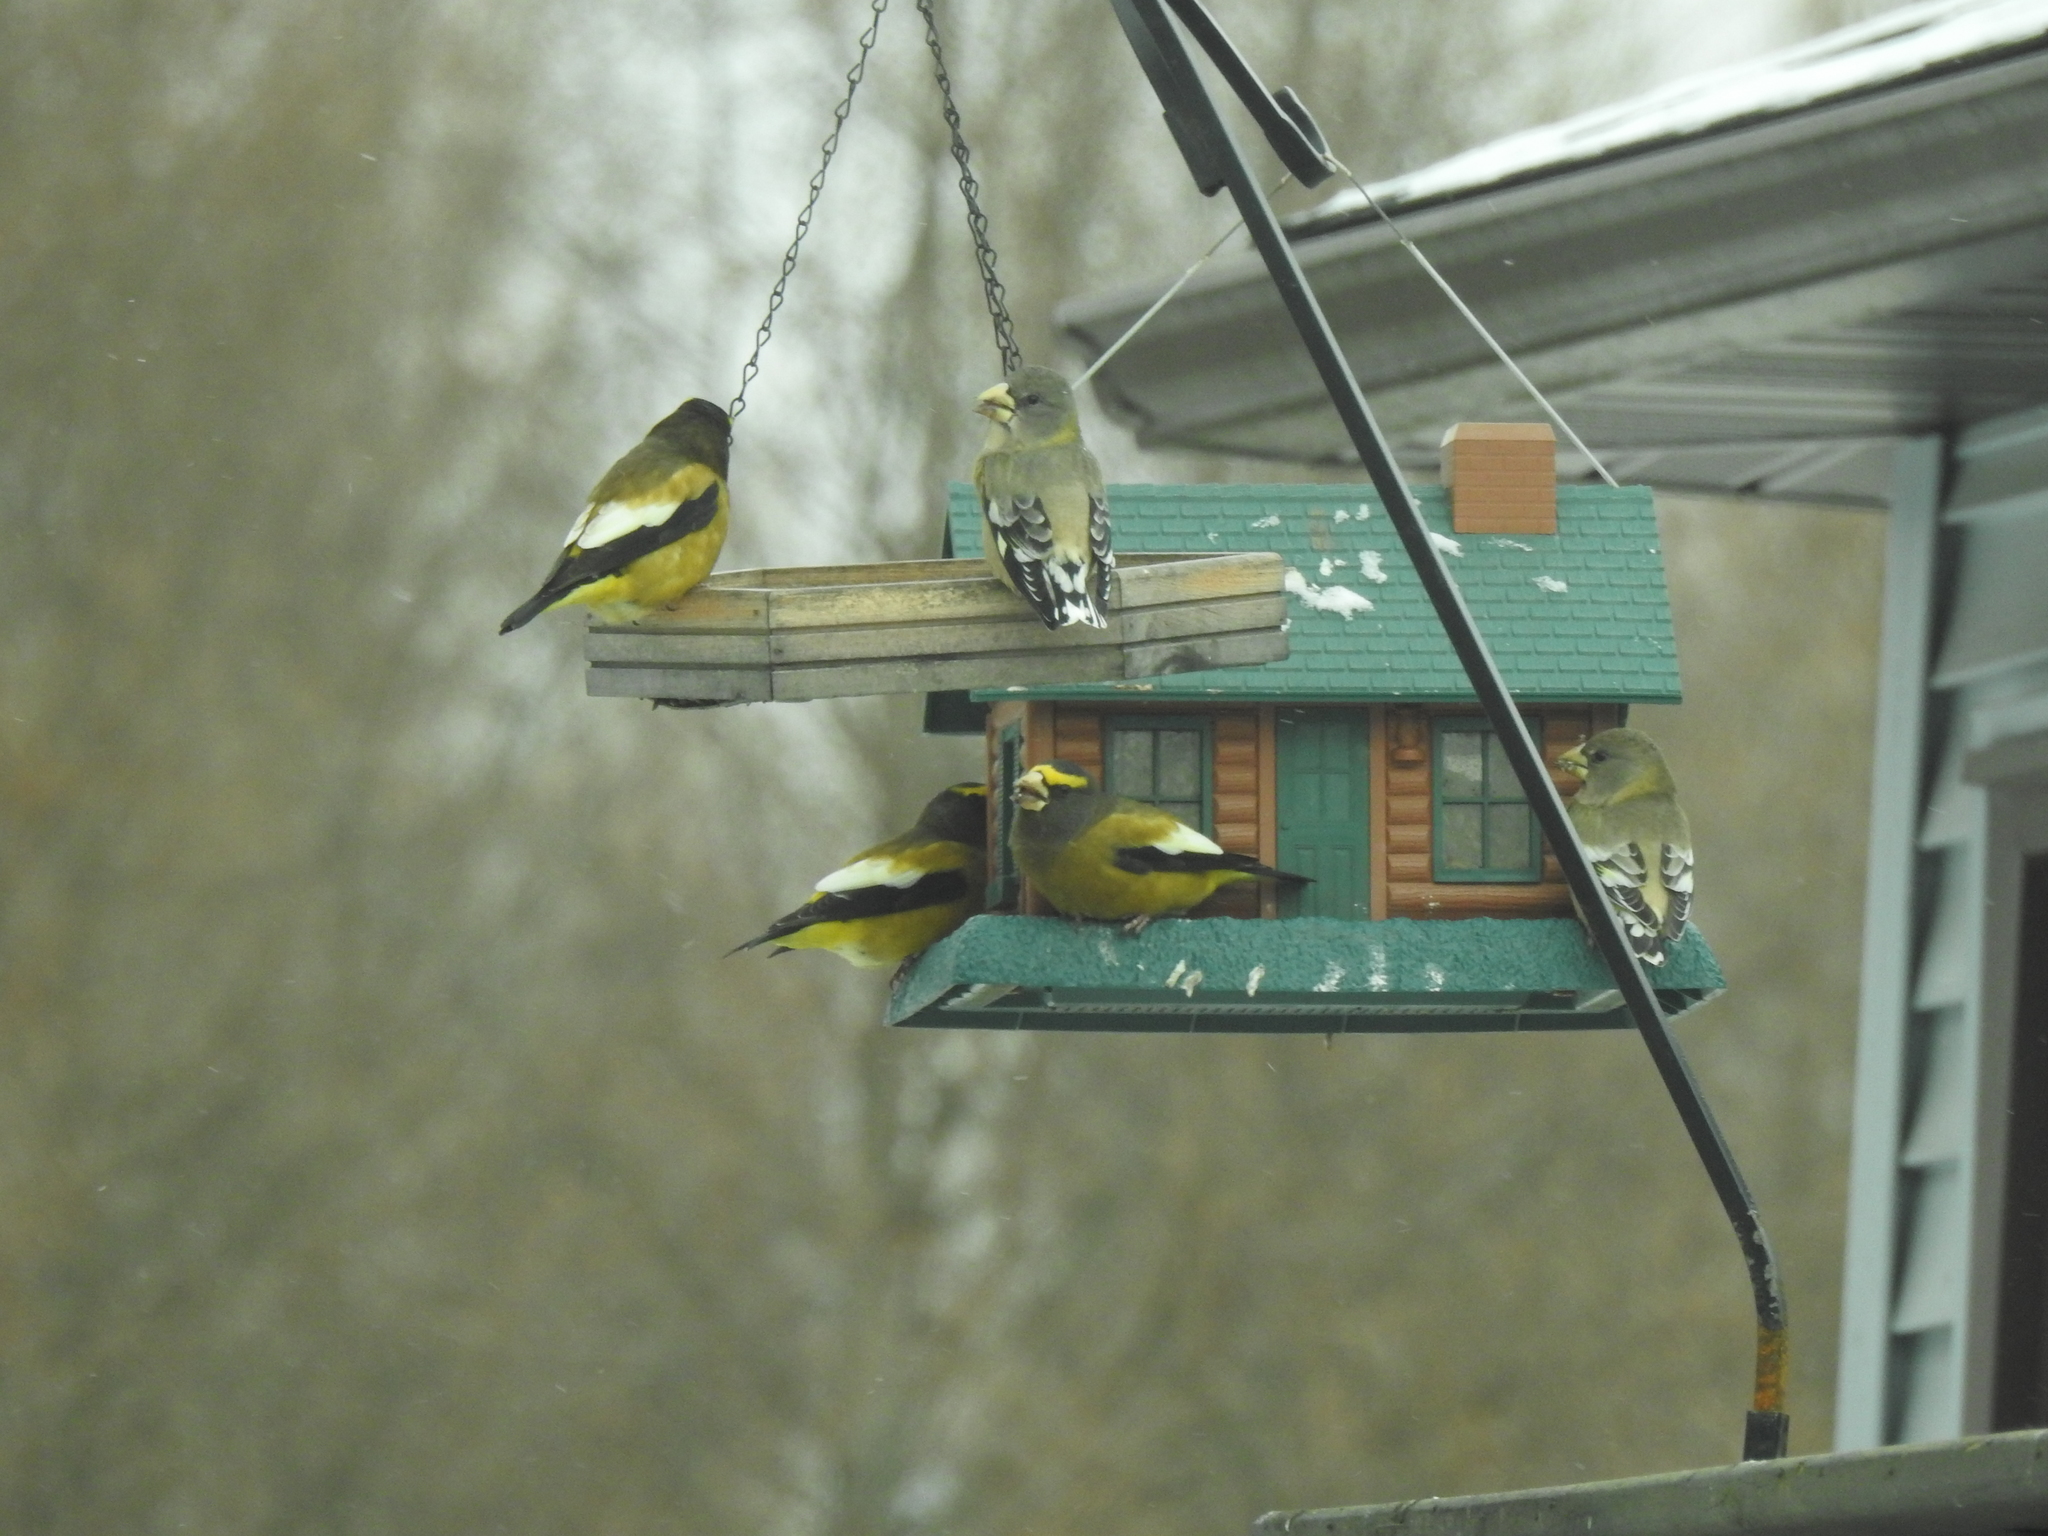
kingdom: Animalia
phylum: Chordata
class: Aves
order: Passeriformes
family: Fringillidae
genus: Hesperiphona
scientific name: Hesperiphona vespertina
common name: Evening grosbeak
